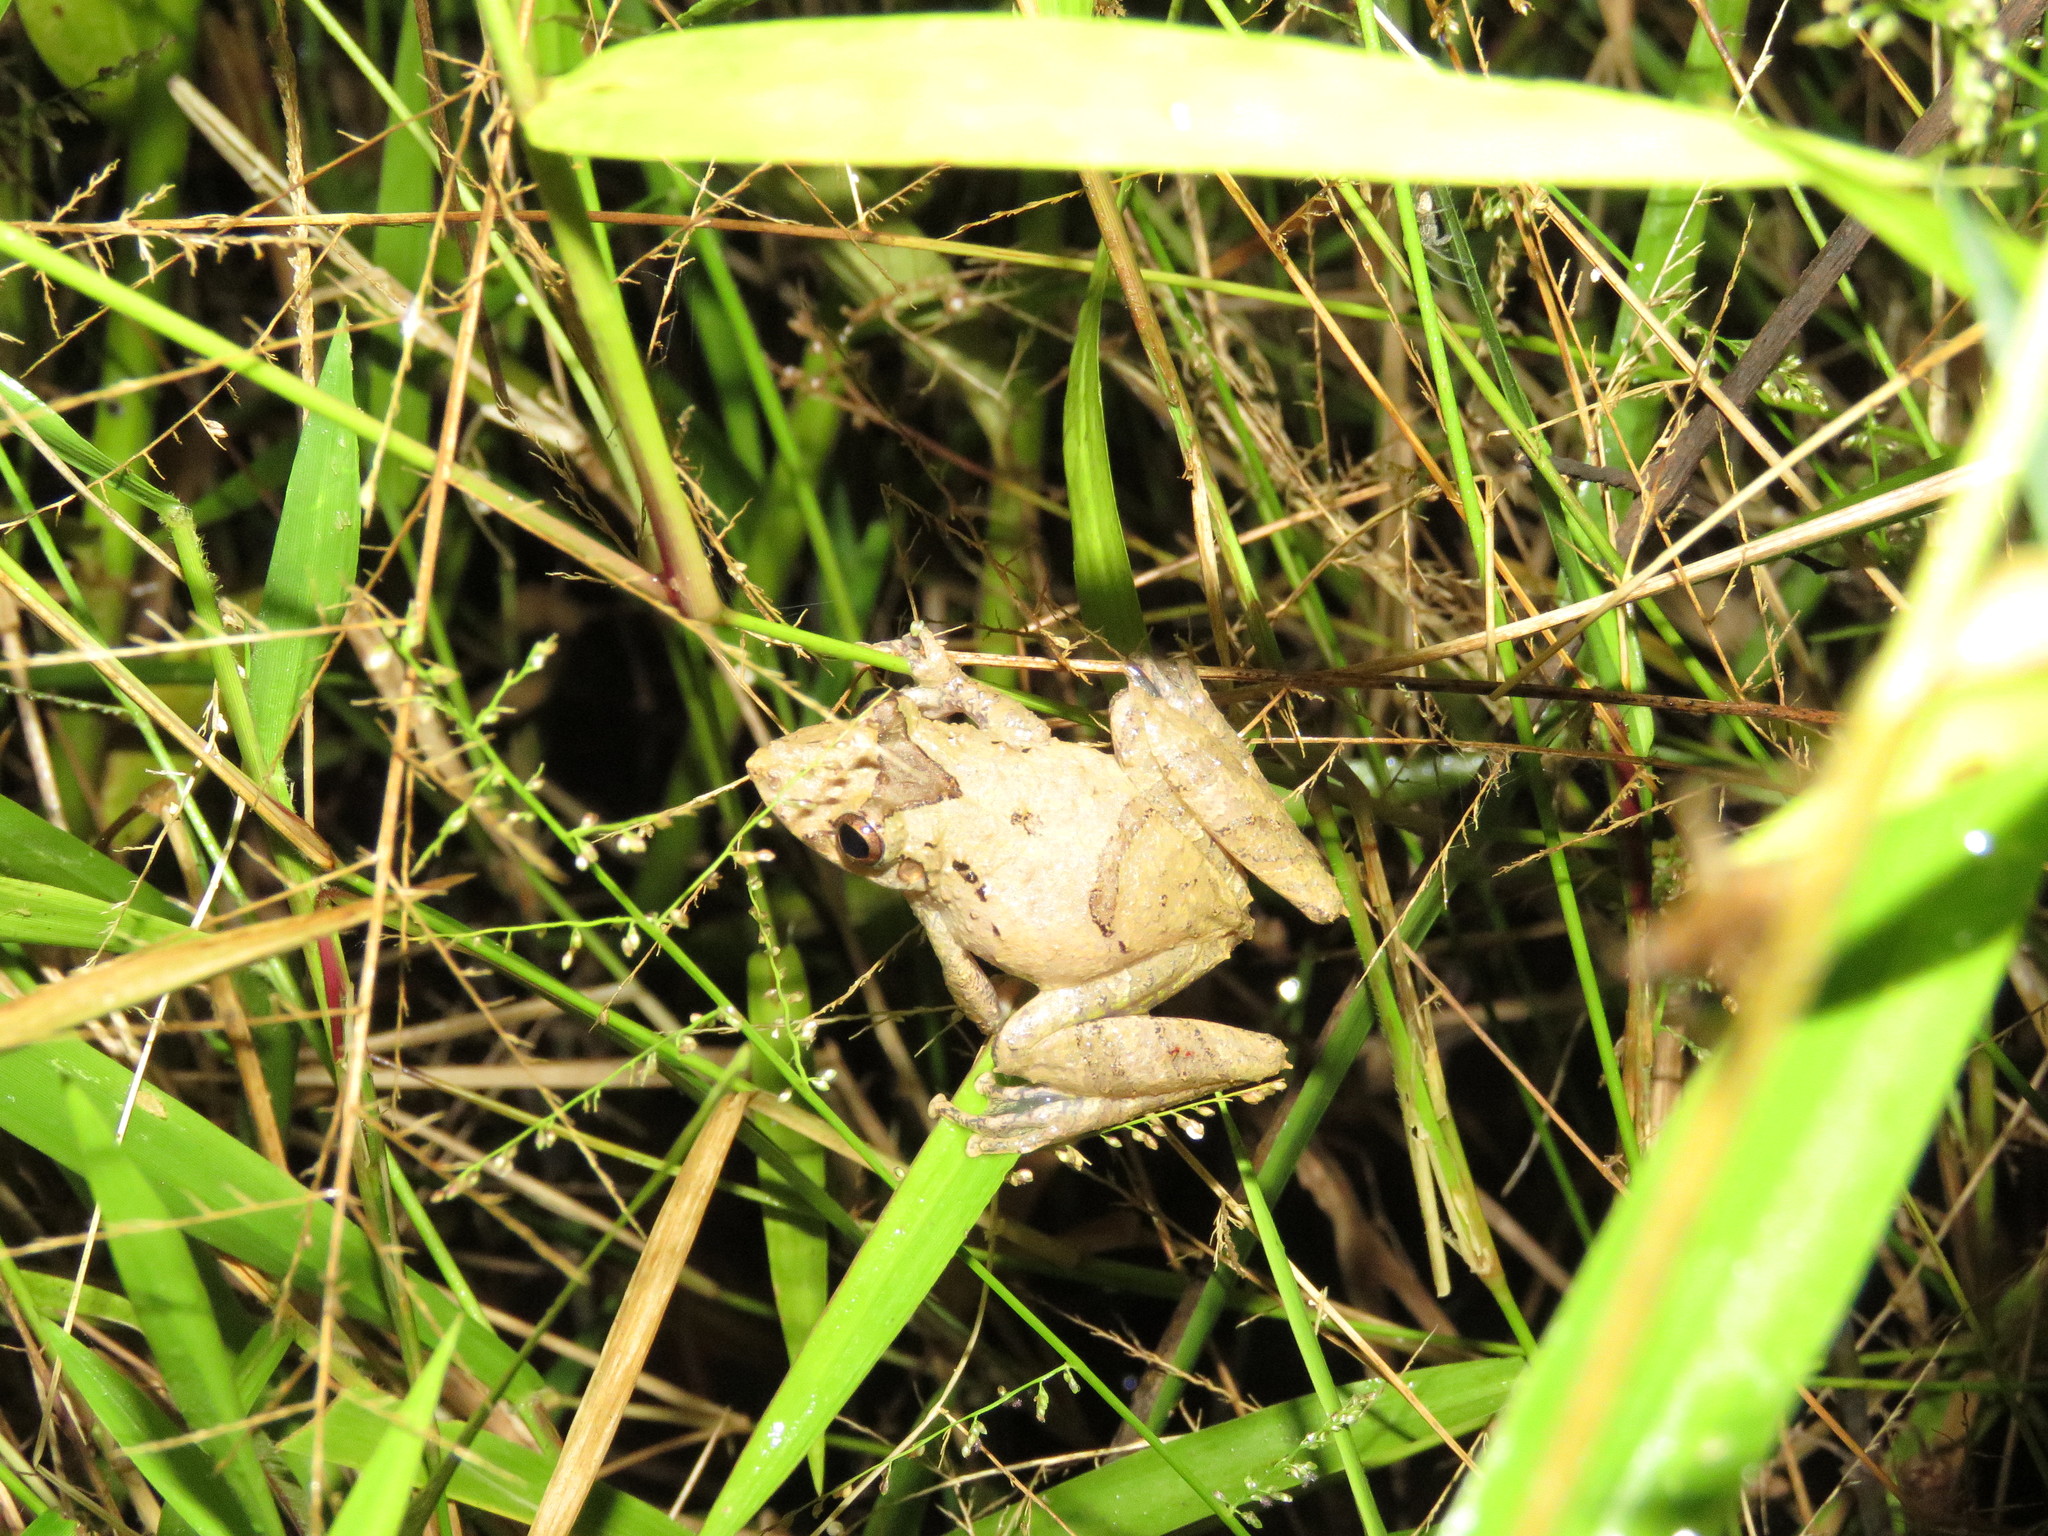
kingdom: Animalia
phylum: Chordata
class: Amphibia
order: Anura
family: Hylidae
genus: Scinax
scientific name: Scinax nebulosus
